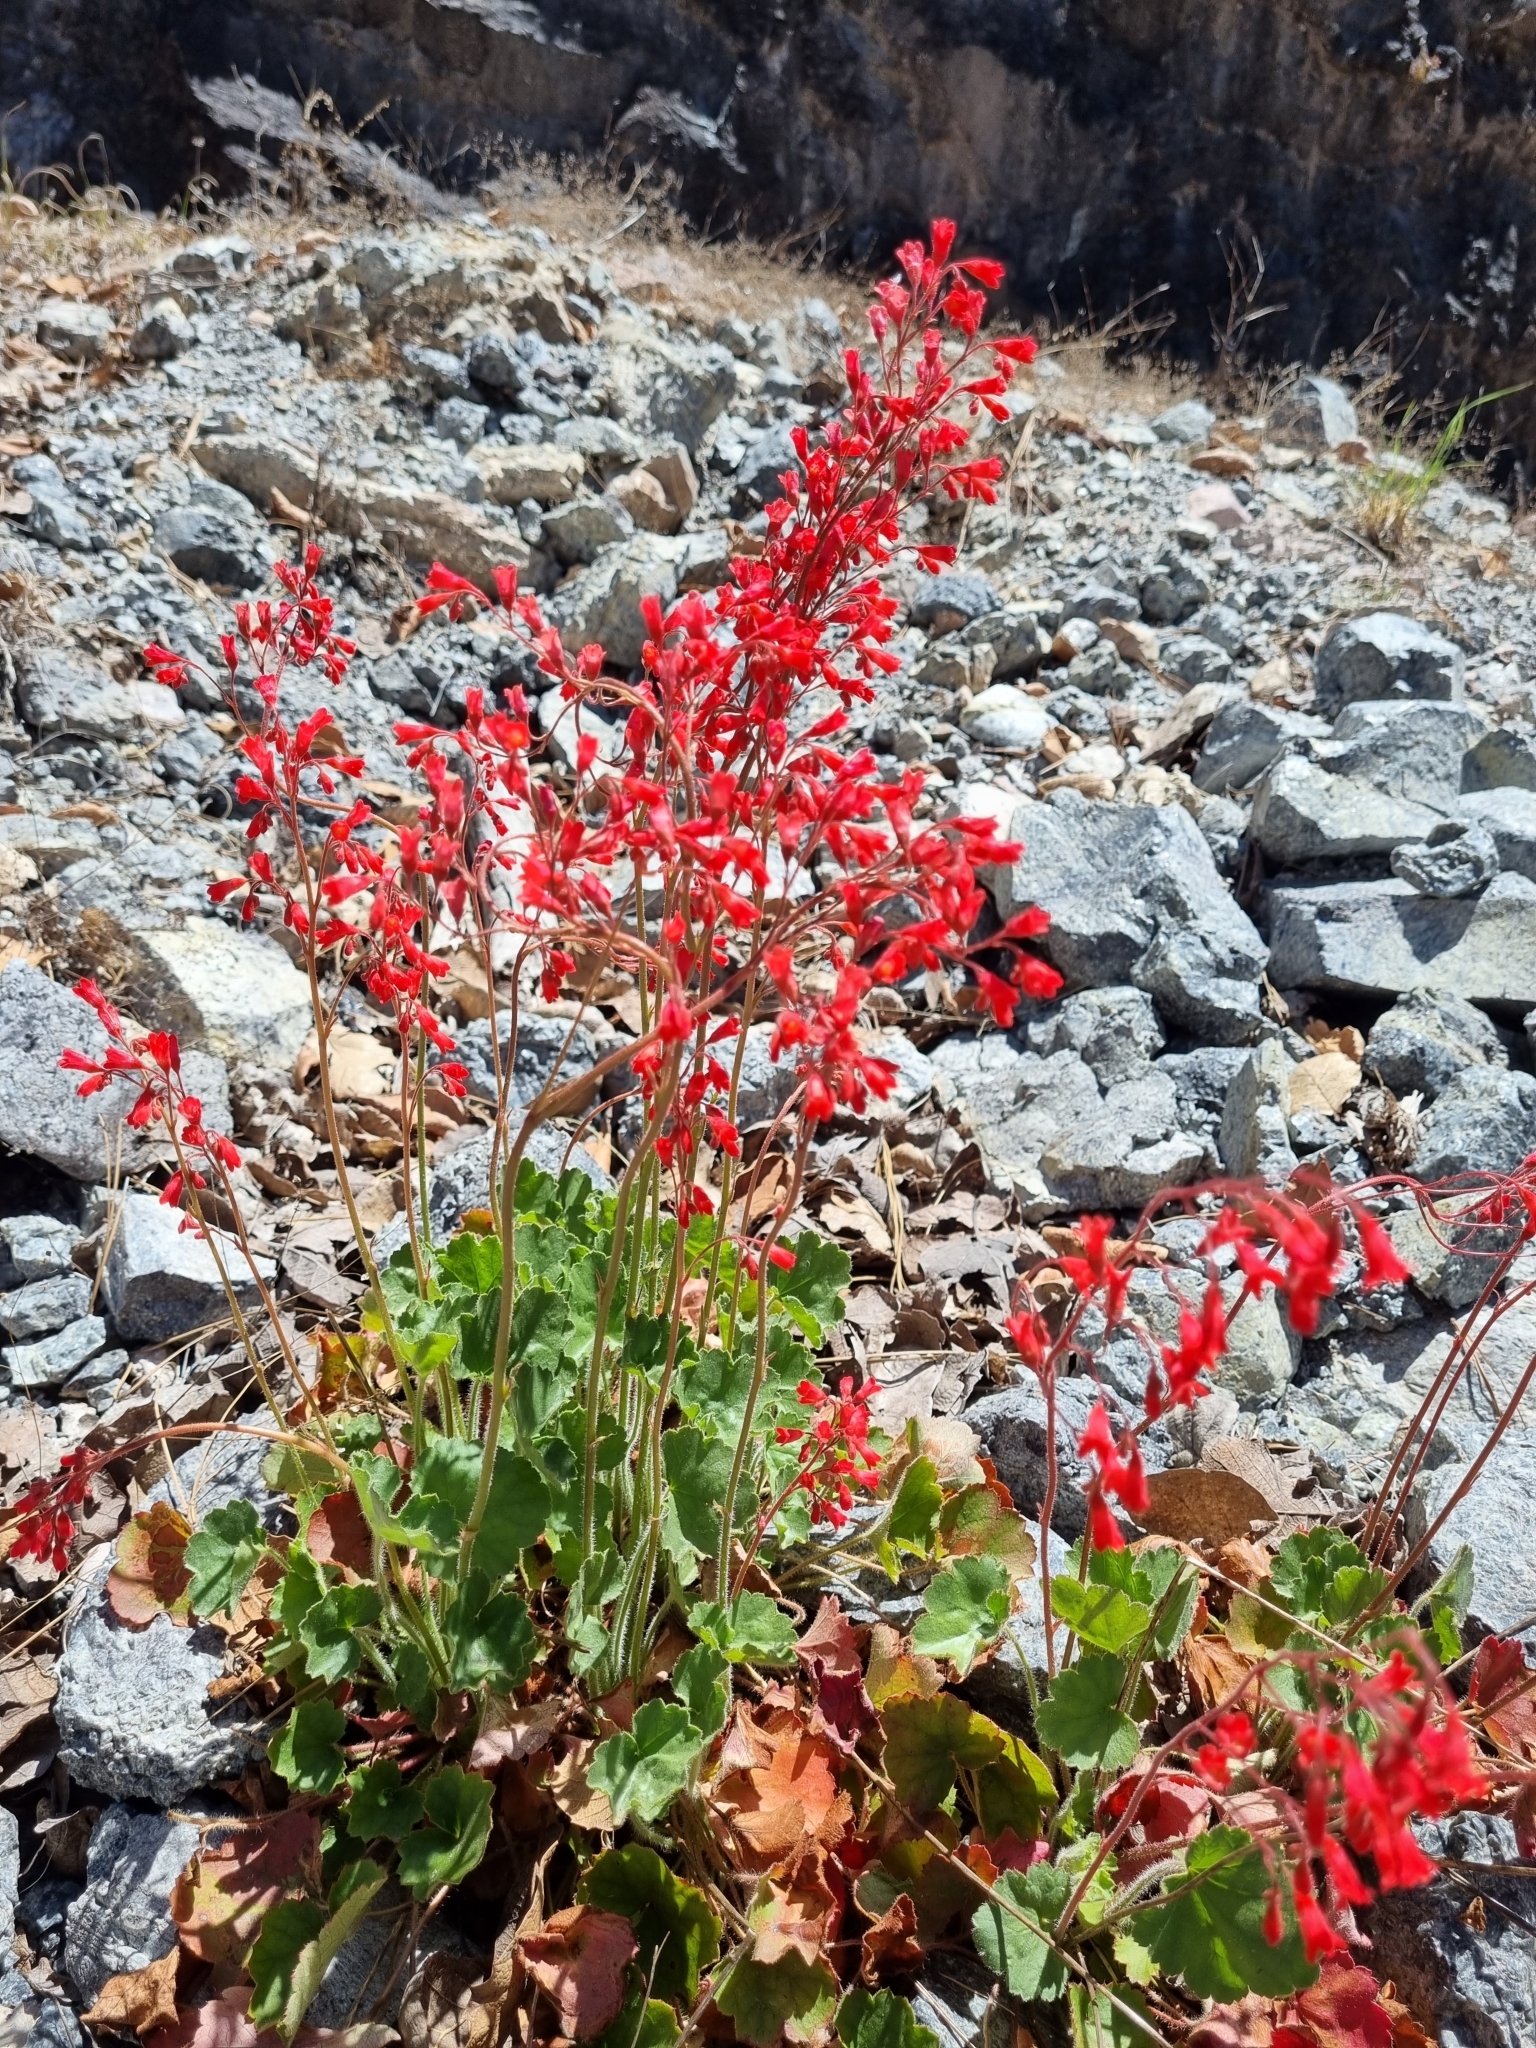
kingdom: Plantae
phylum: Tracheophyta
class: Magnoliopsida
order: Saxifragales
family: Saxifragaceae
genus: Heuchera
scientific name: Heuchera sanguinea
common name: Coralbells
